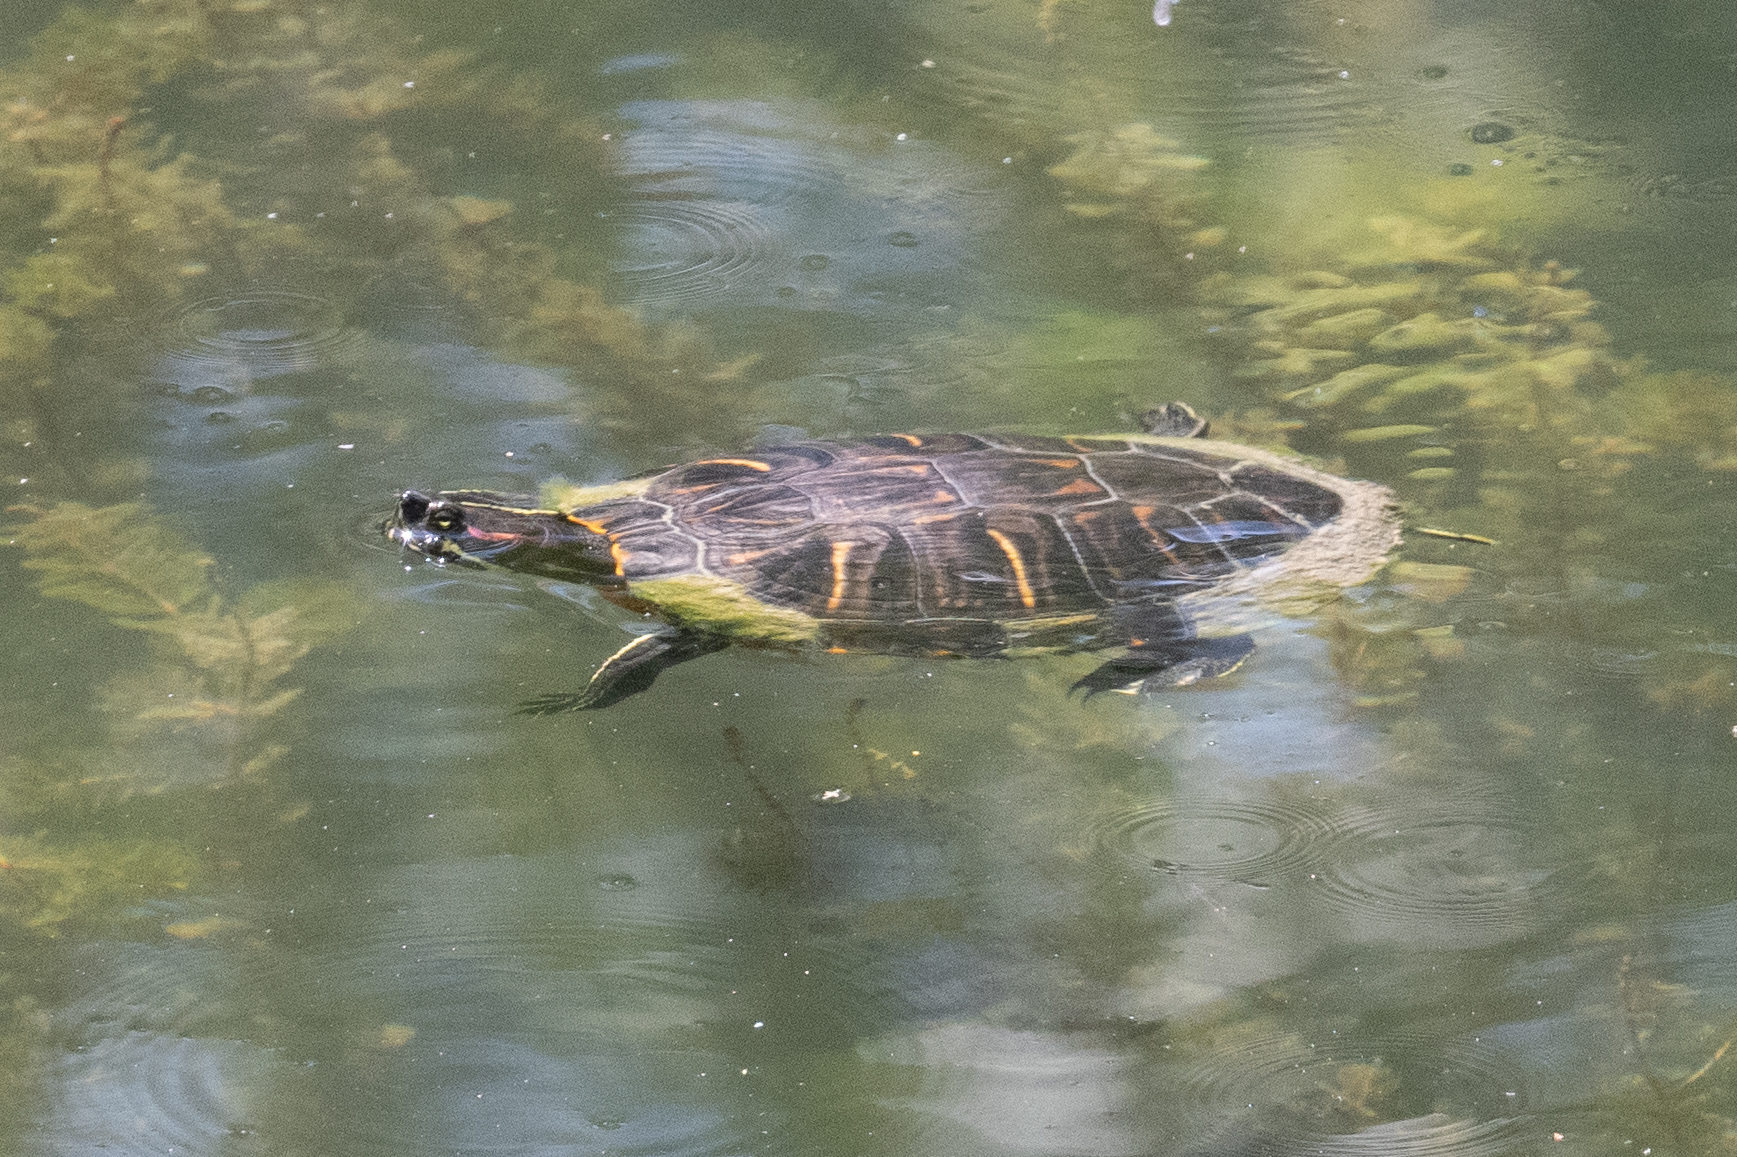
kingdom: Animalia
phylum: Chordata
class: Testudines
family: Emydidae
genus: Trachemys
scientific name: Trachemys scripta
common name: Slider
